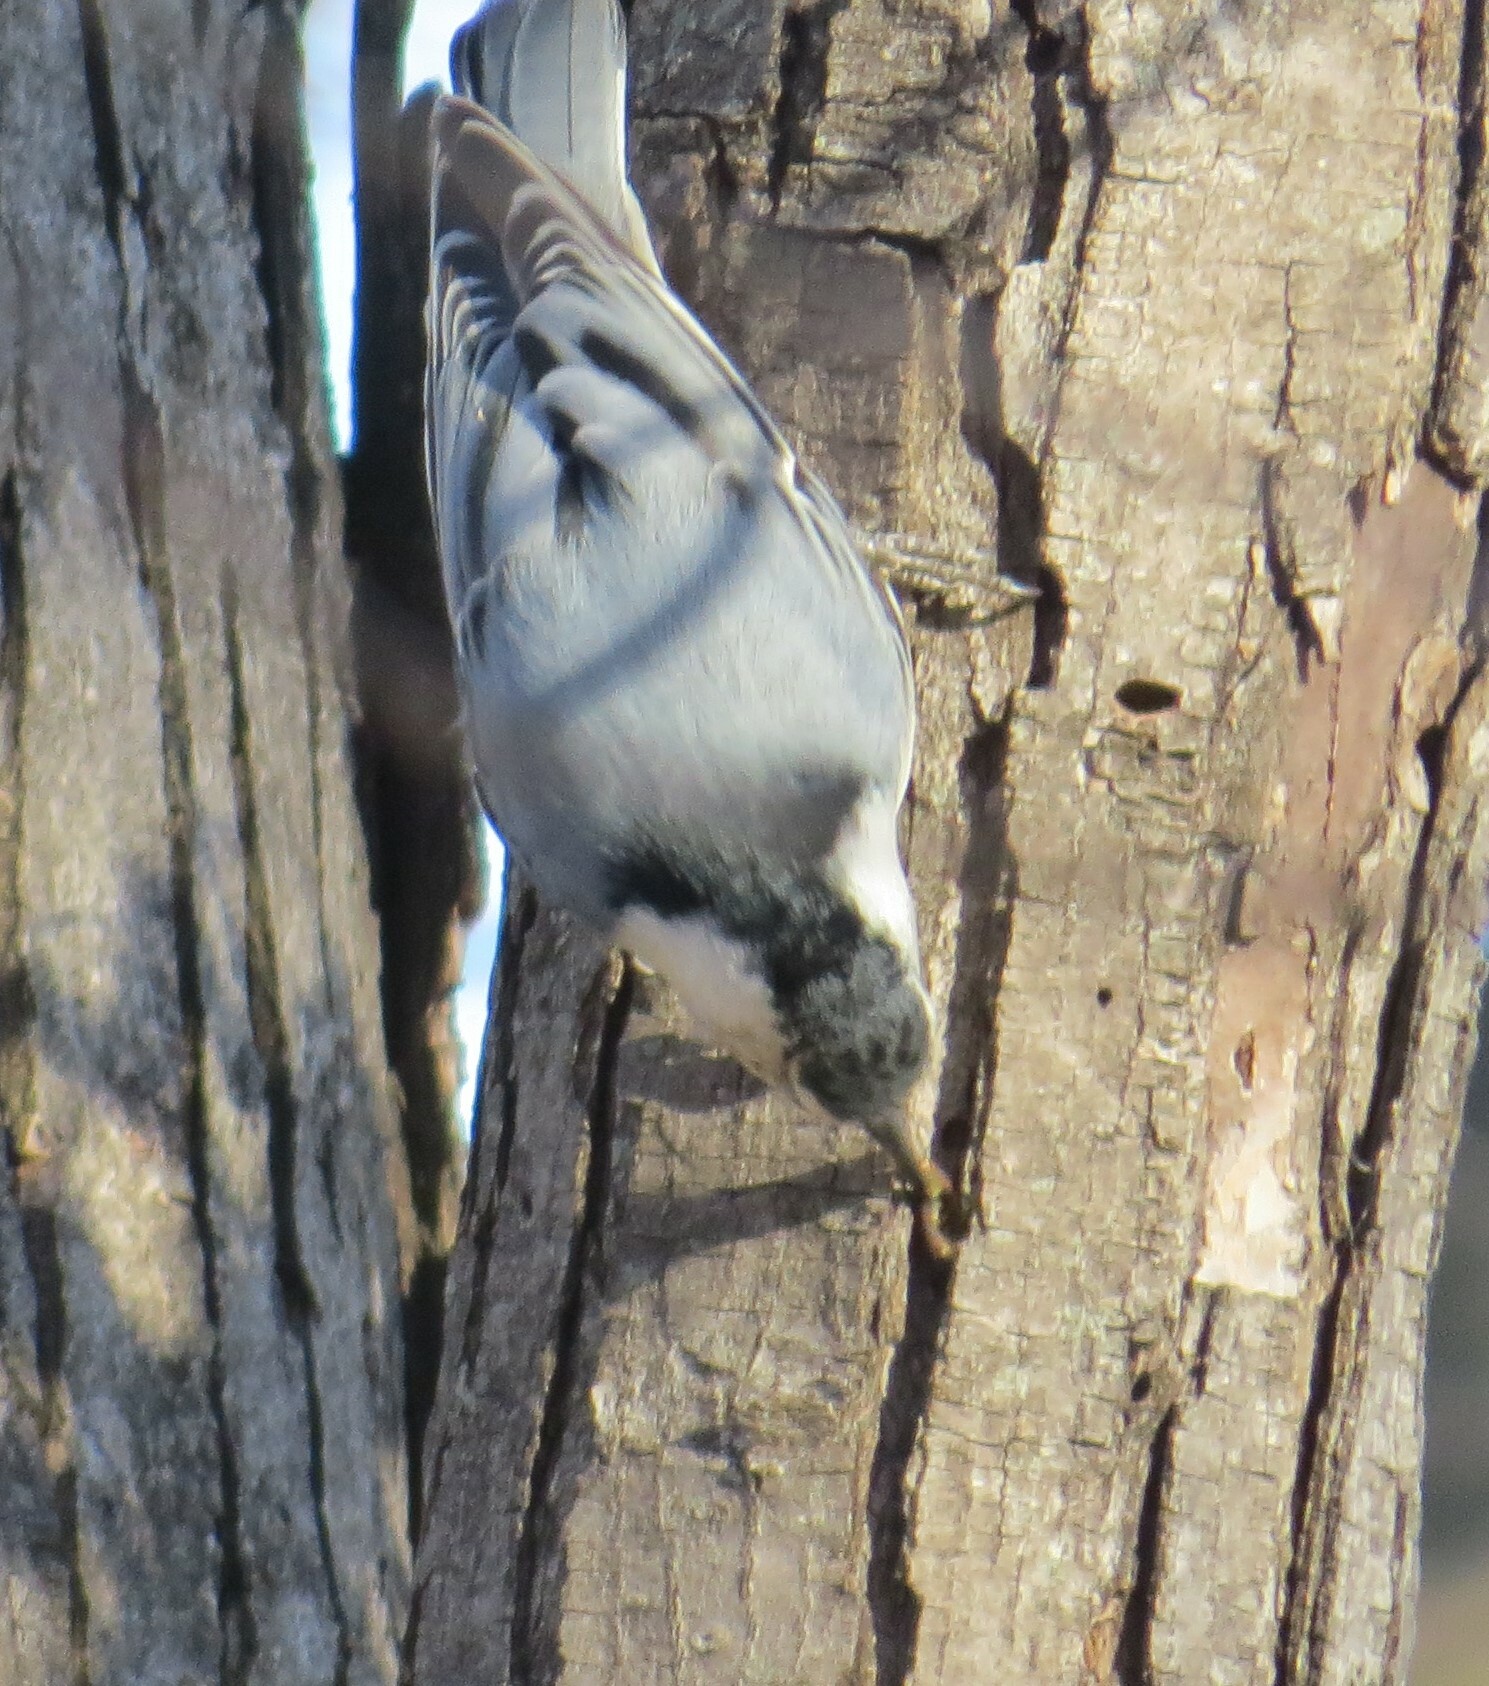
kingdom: Animalia
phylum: Chordata
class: Aves
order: Passeriformes
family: Sittidae
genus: Sitta
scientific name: Sitta carolinensis
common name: White-breasted nuthatch
